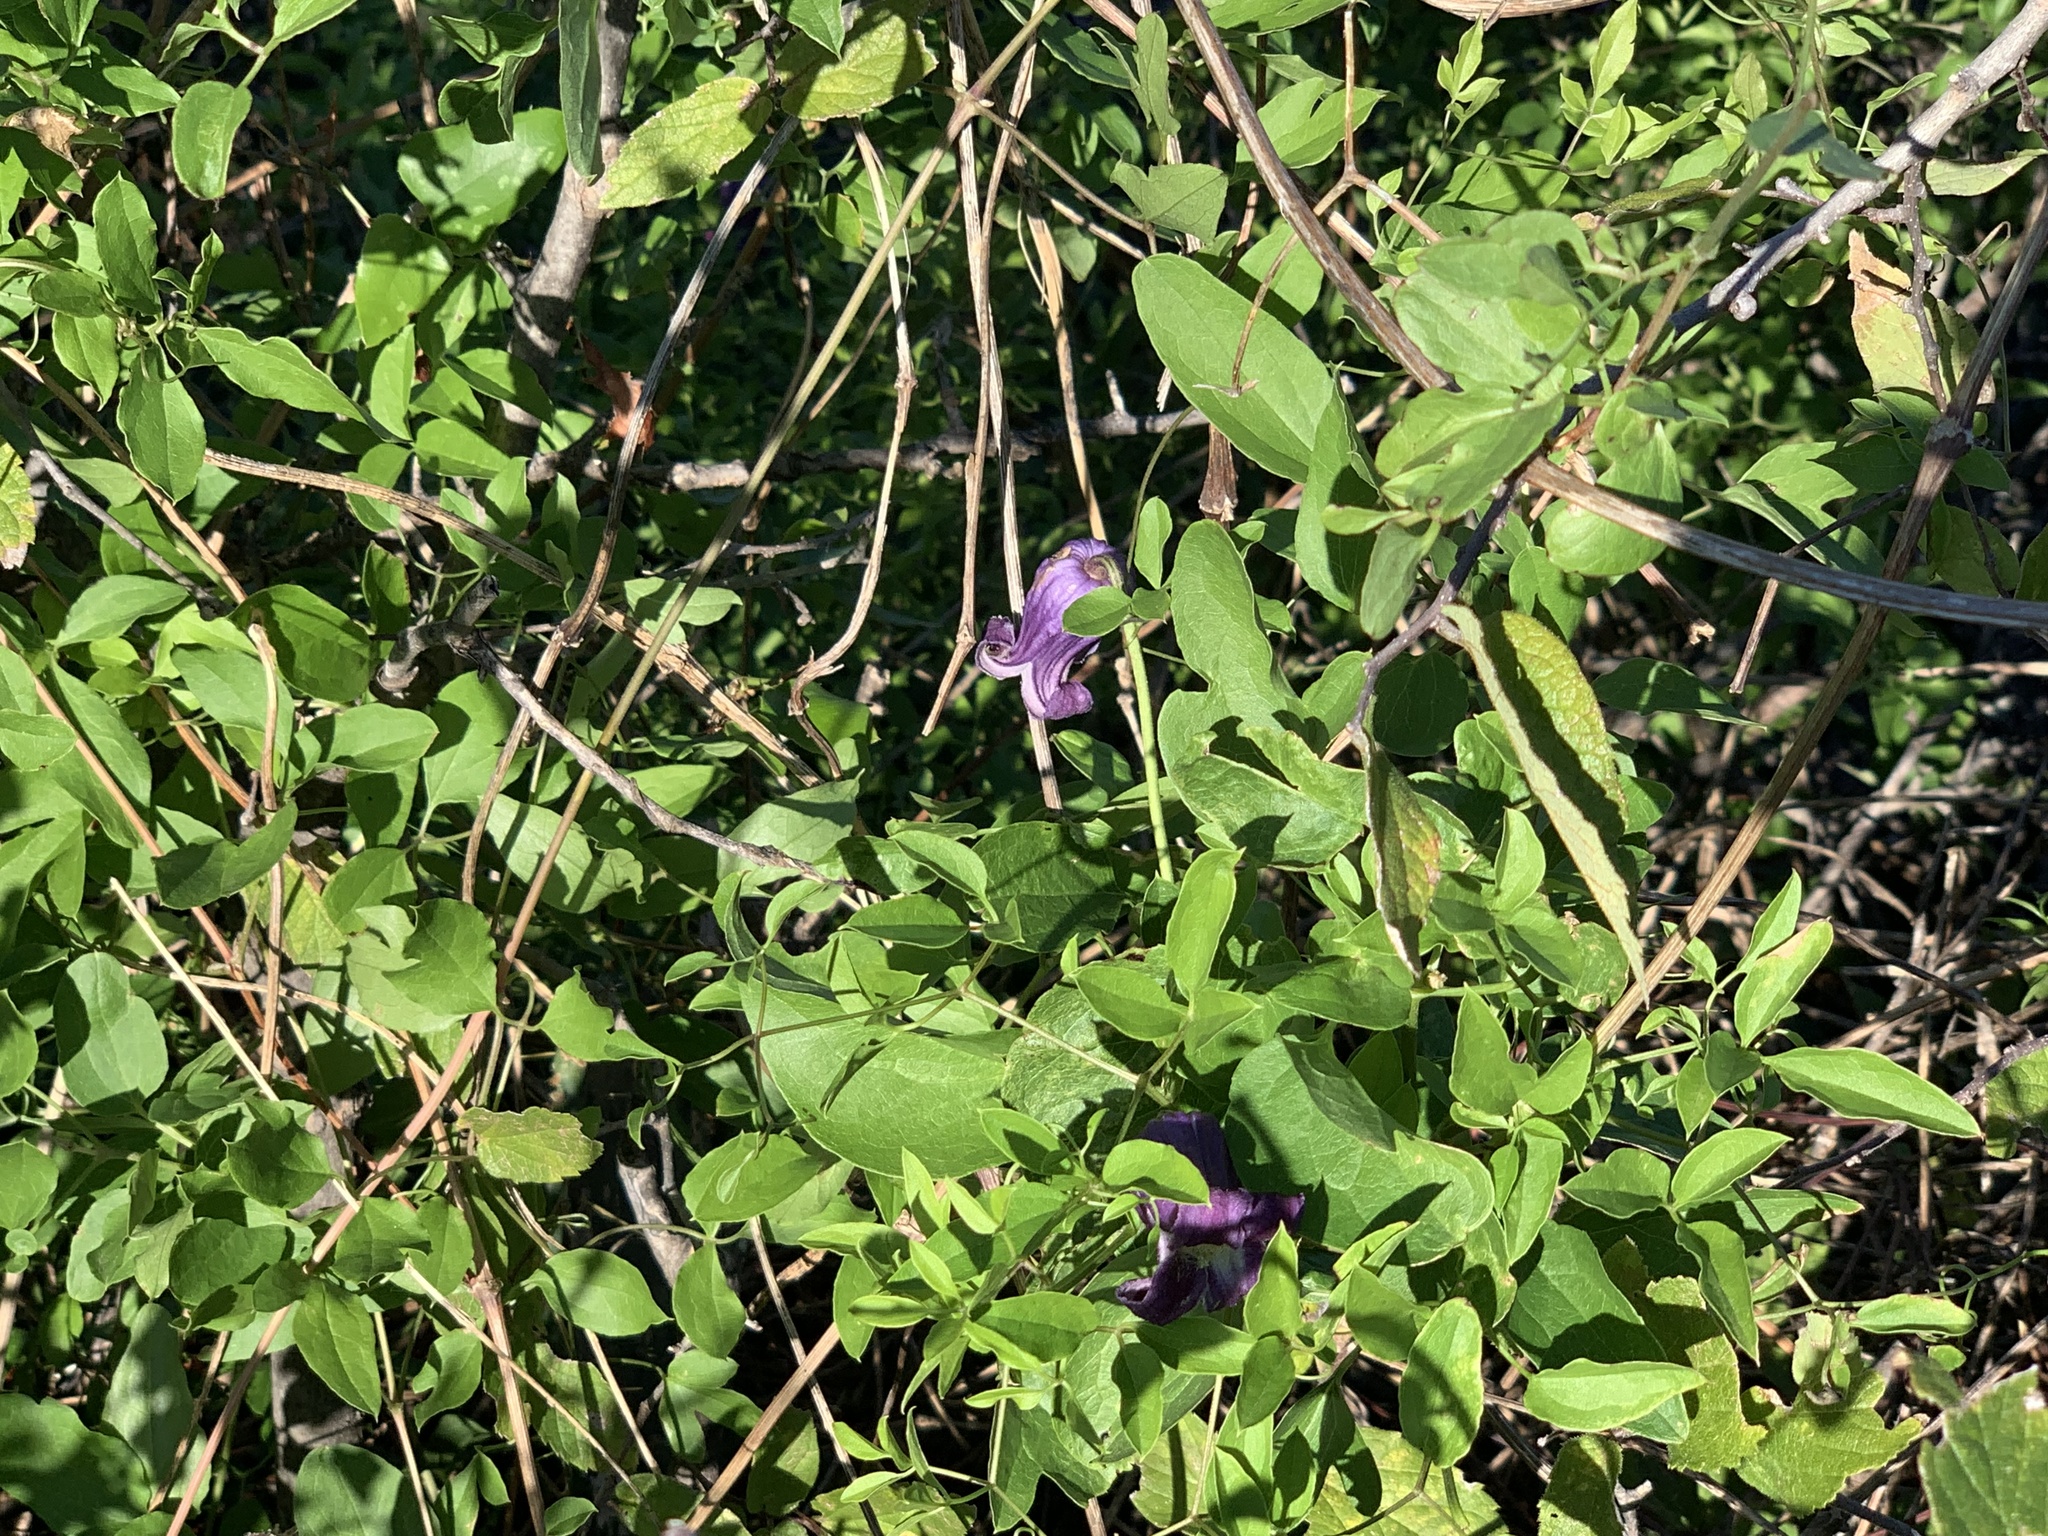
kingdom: Plantae
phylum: Tracheophyta
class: Magnoliopsida
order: Ranunculales
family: Ranunculaceae
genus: Clematis
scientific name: Clematis pitcheri
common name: Bellflower clematis
